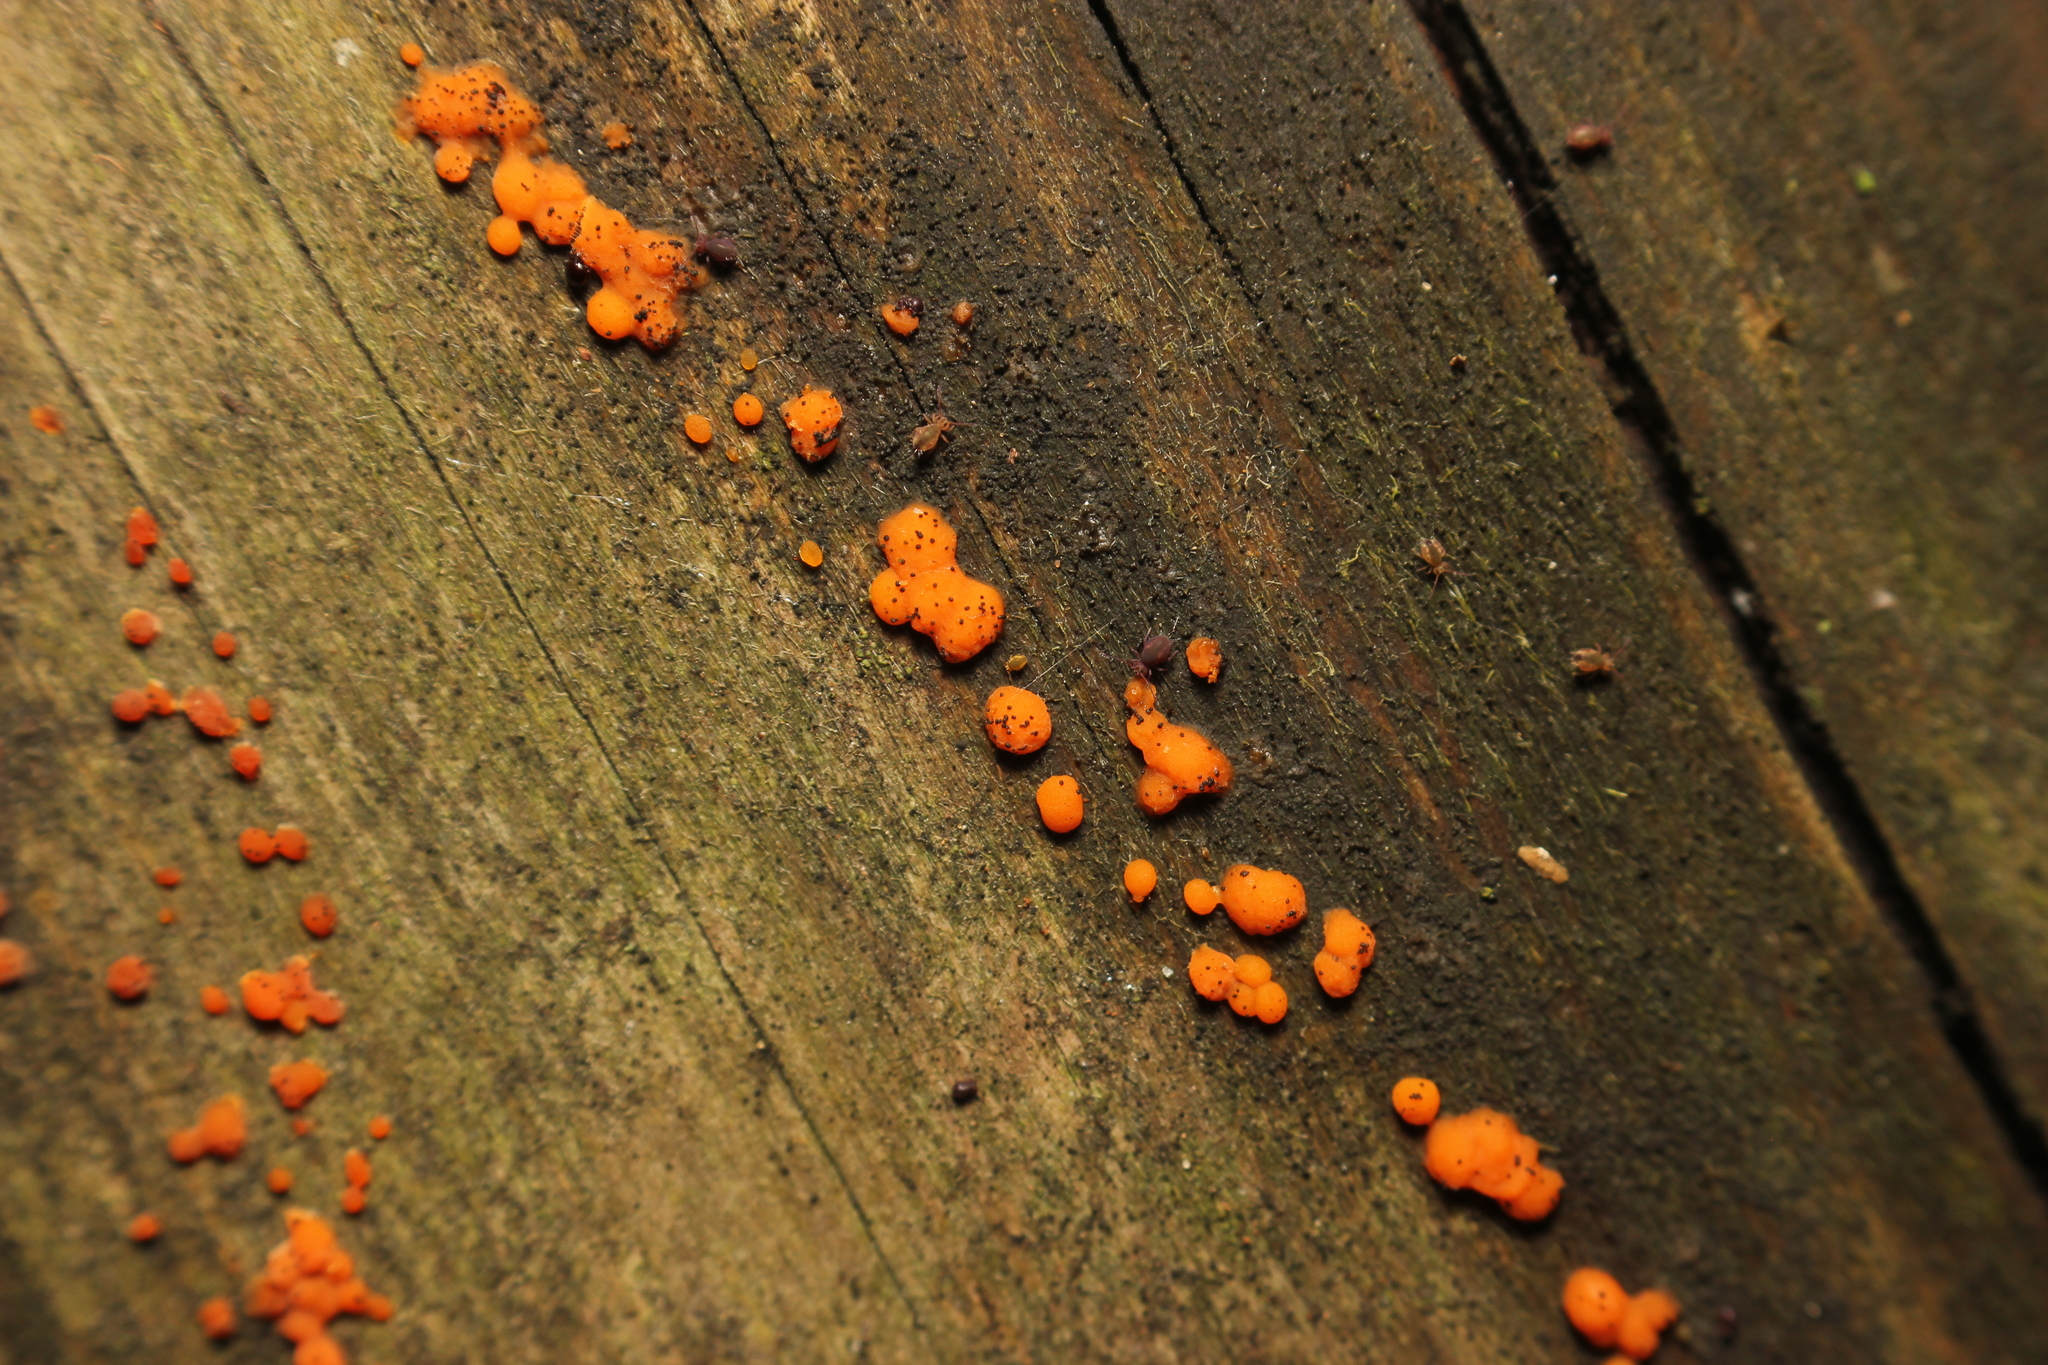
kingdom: Fungi
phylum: Basidiomycota
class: Dacrymycetes
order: Dacrymycetales
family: Dacrymycetaceae
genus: Dacrymyces
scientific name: Dacrymyces stillatus
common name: Common jelly spot
